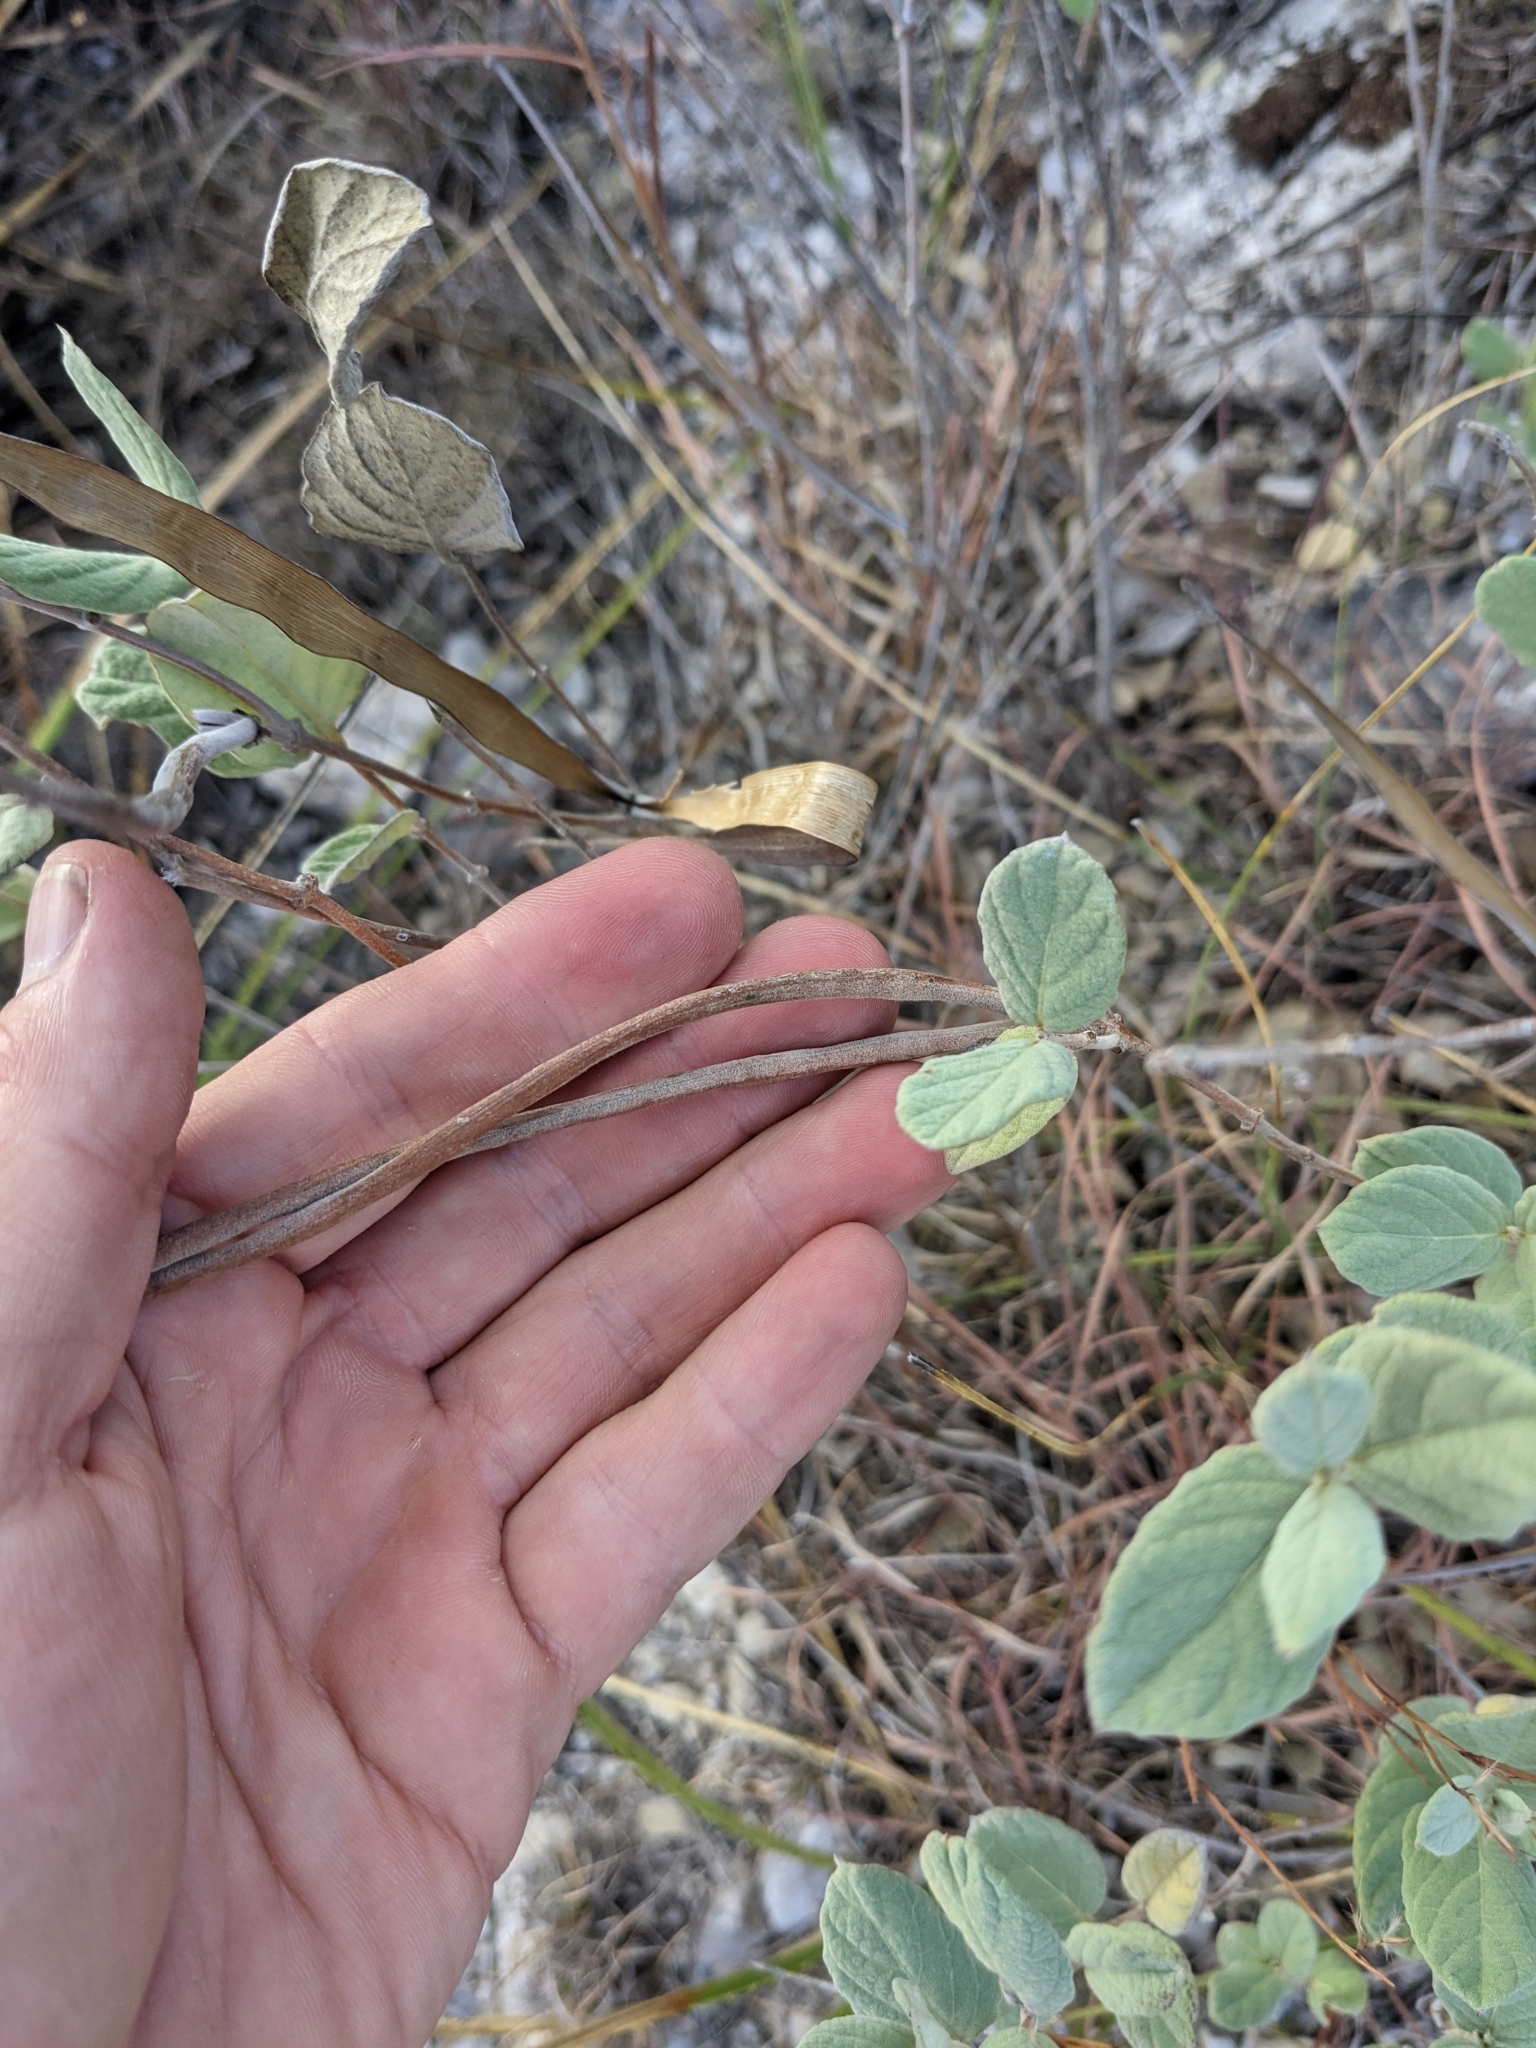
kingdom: Plantae
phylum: Tracheophyta
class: Magnoliopsida
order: Gentianales
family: Apocynaceae
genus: Mandevilla
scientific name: Mandevilla macrosiphon
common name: Plateau rocktrumpet
